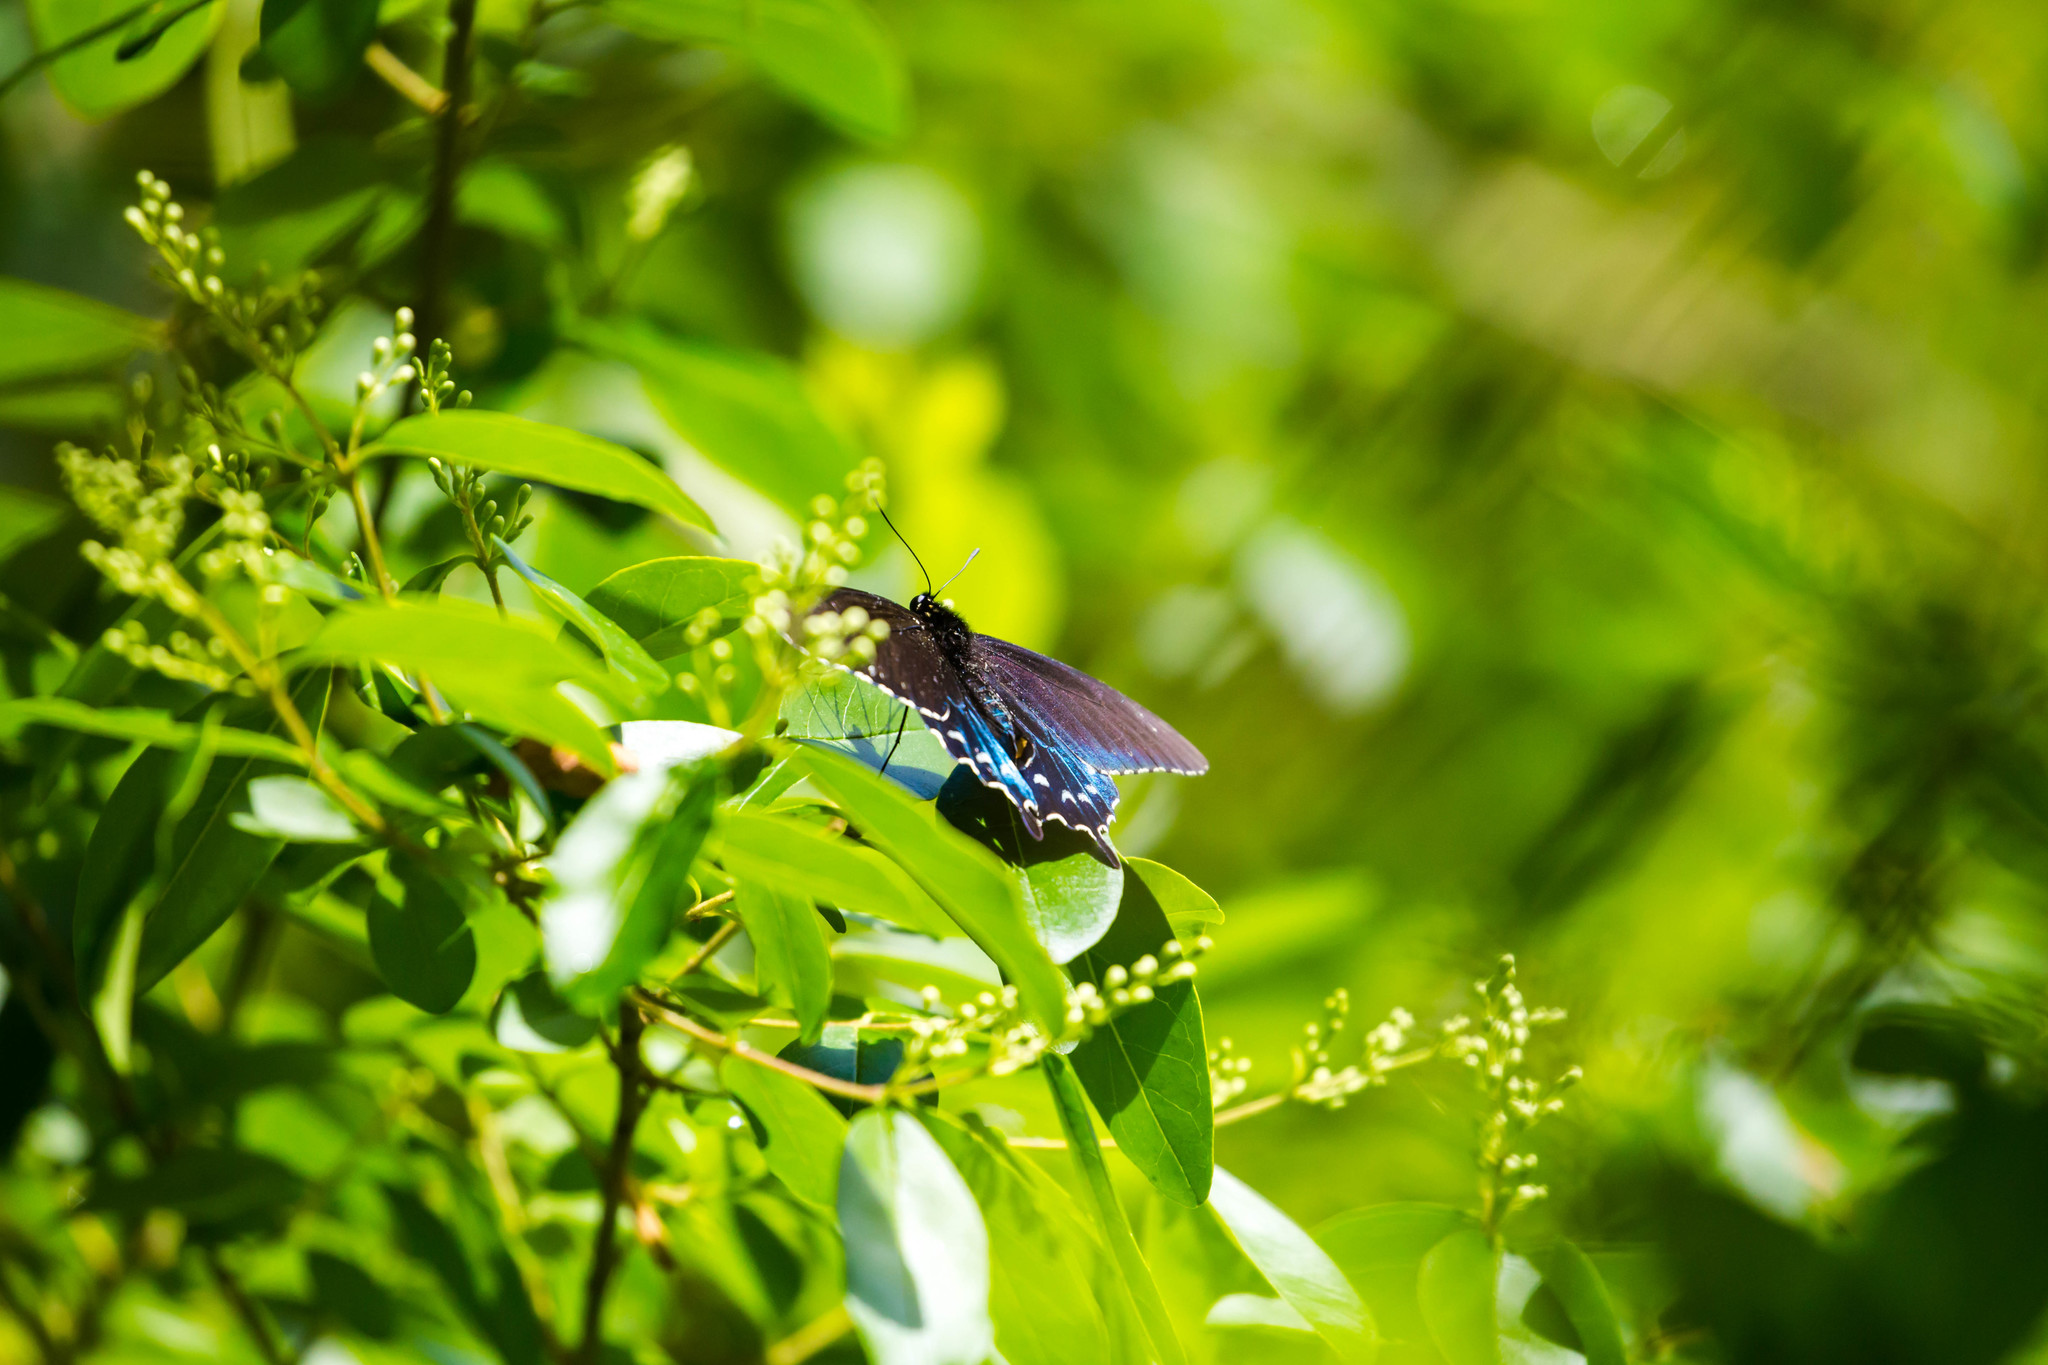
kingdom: Animalia
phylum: Arthropoda
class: Insecta
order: Lepidoptera
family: Papilionidae
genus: Battus
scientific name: Battus philenor
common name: Pipevine swallowtail
